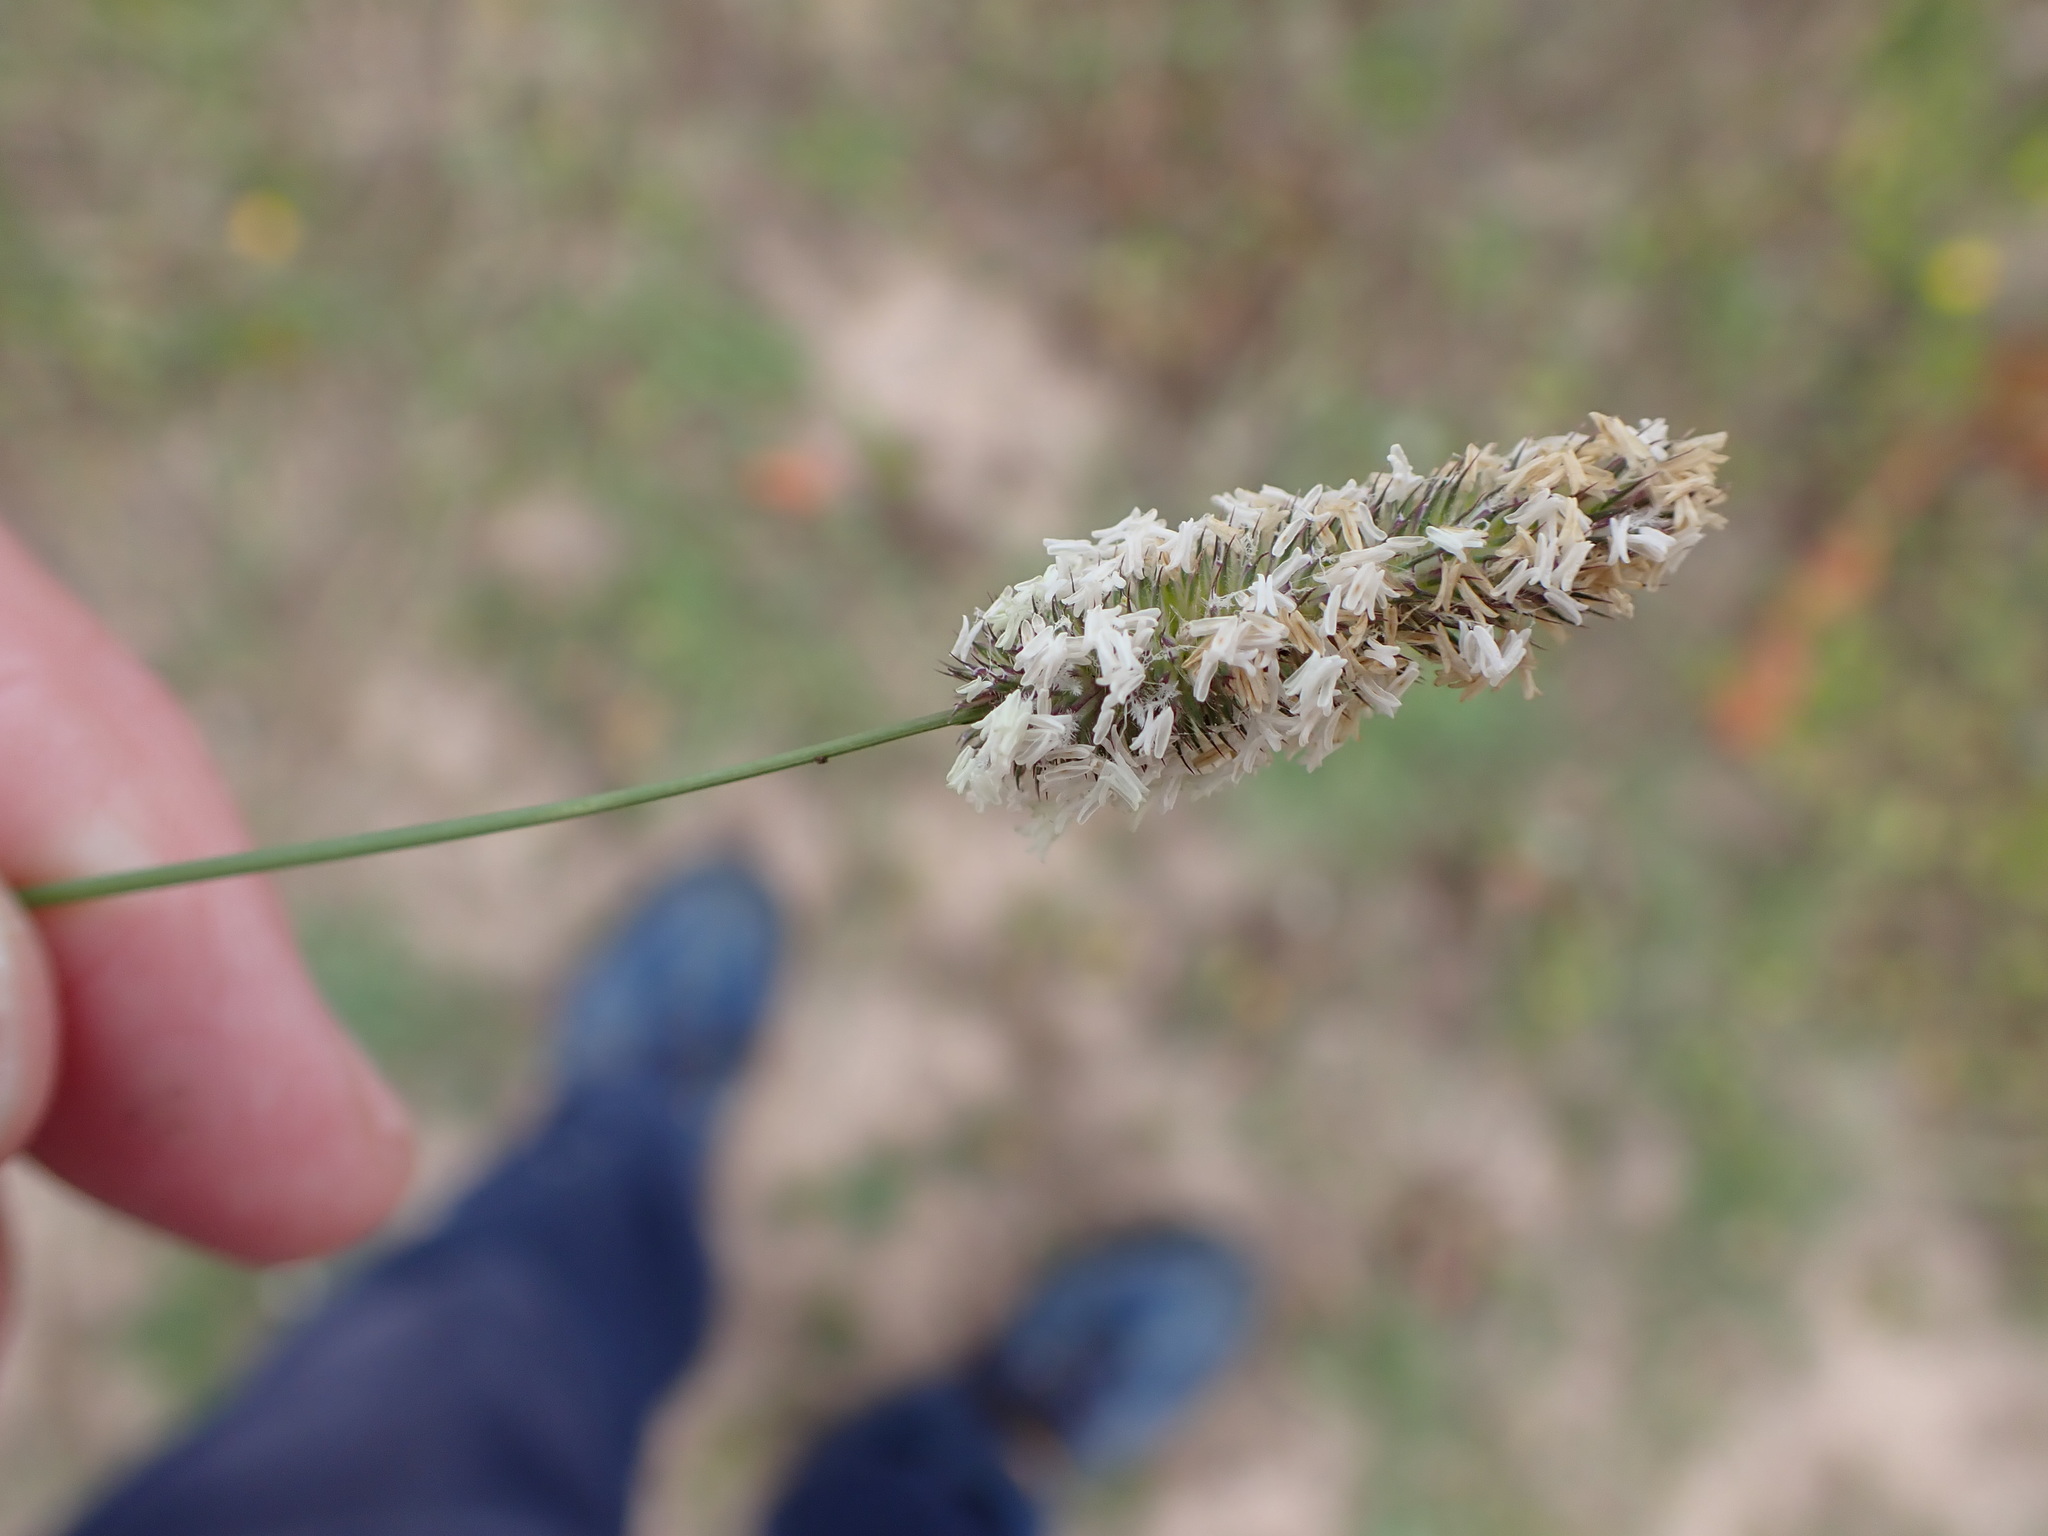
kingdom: Plantae
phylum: Tracheophyta
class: Liliopsida
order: Poales
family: Poaceae
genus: Phleum
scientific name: Phleum pratense
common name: Timothy grass
